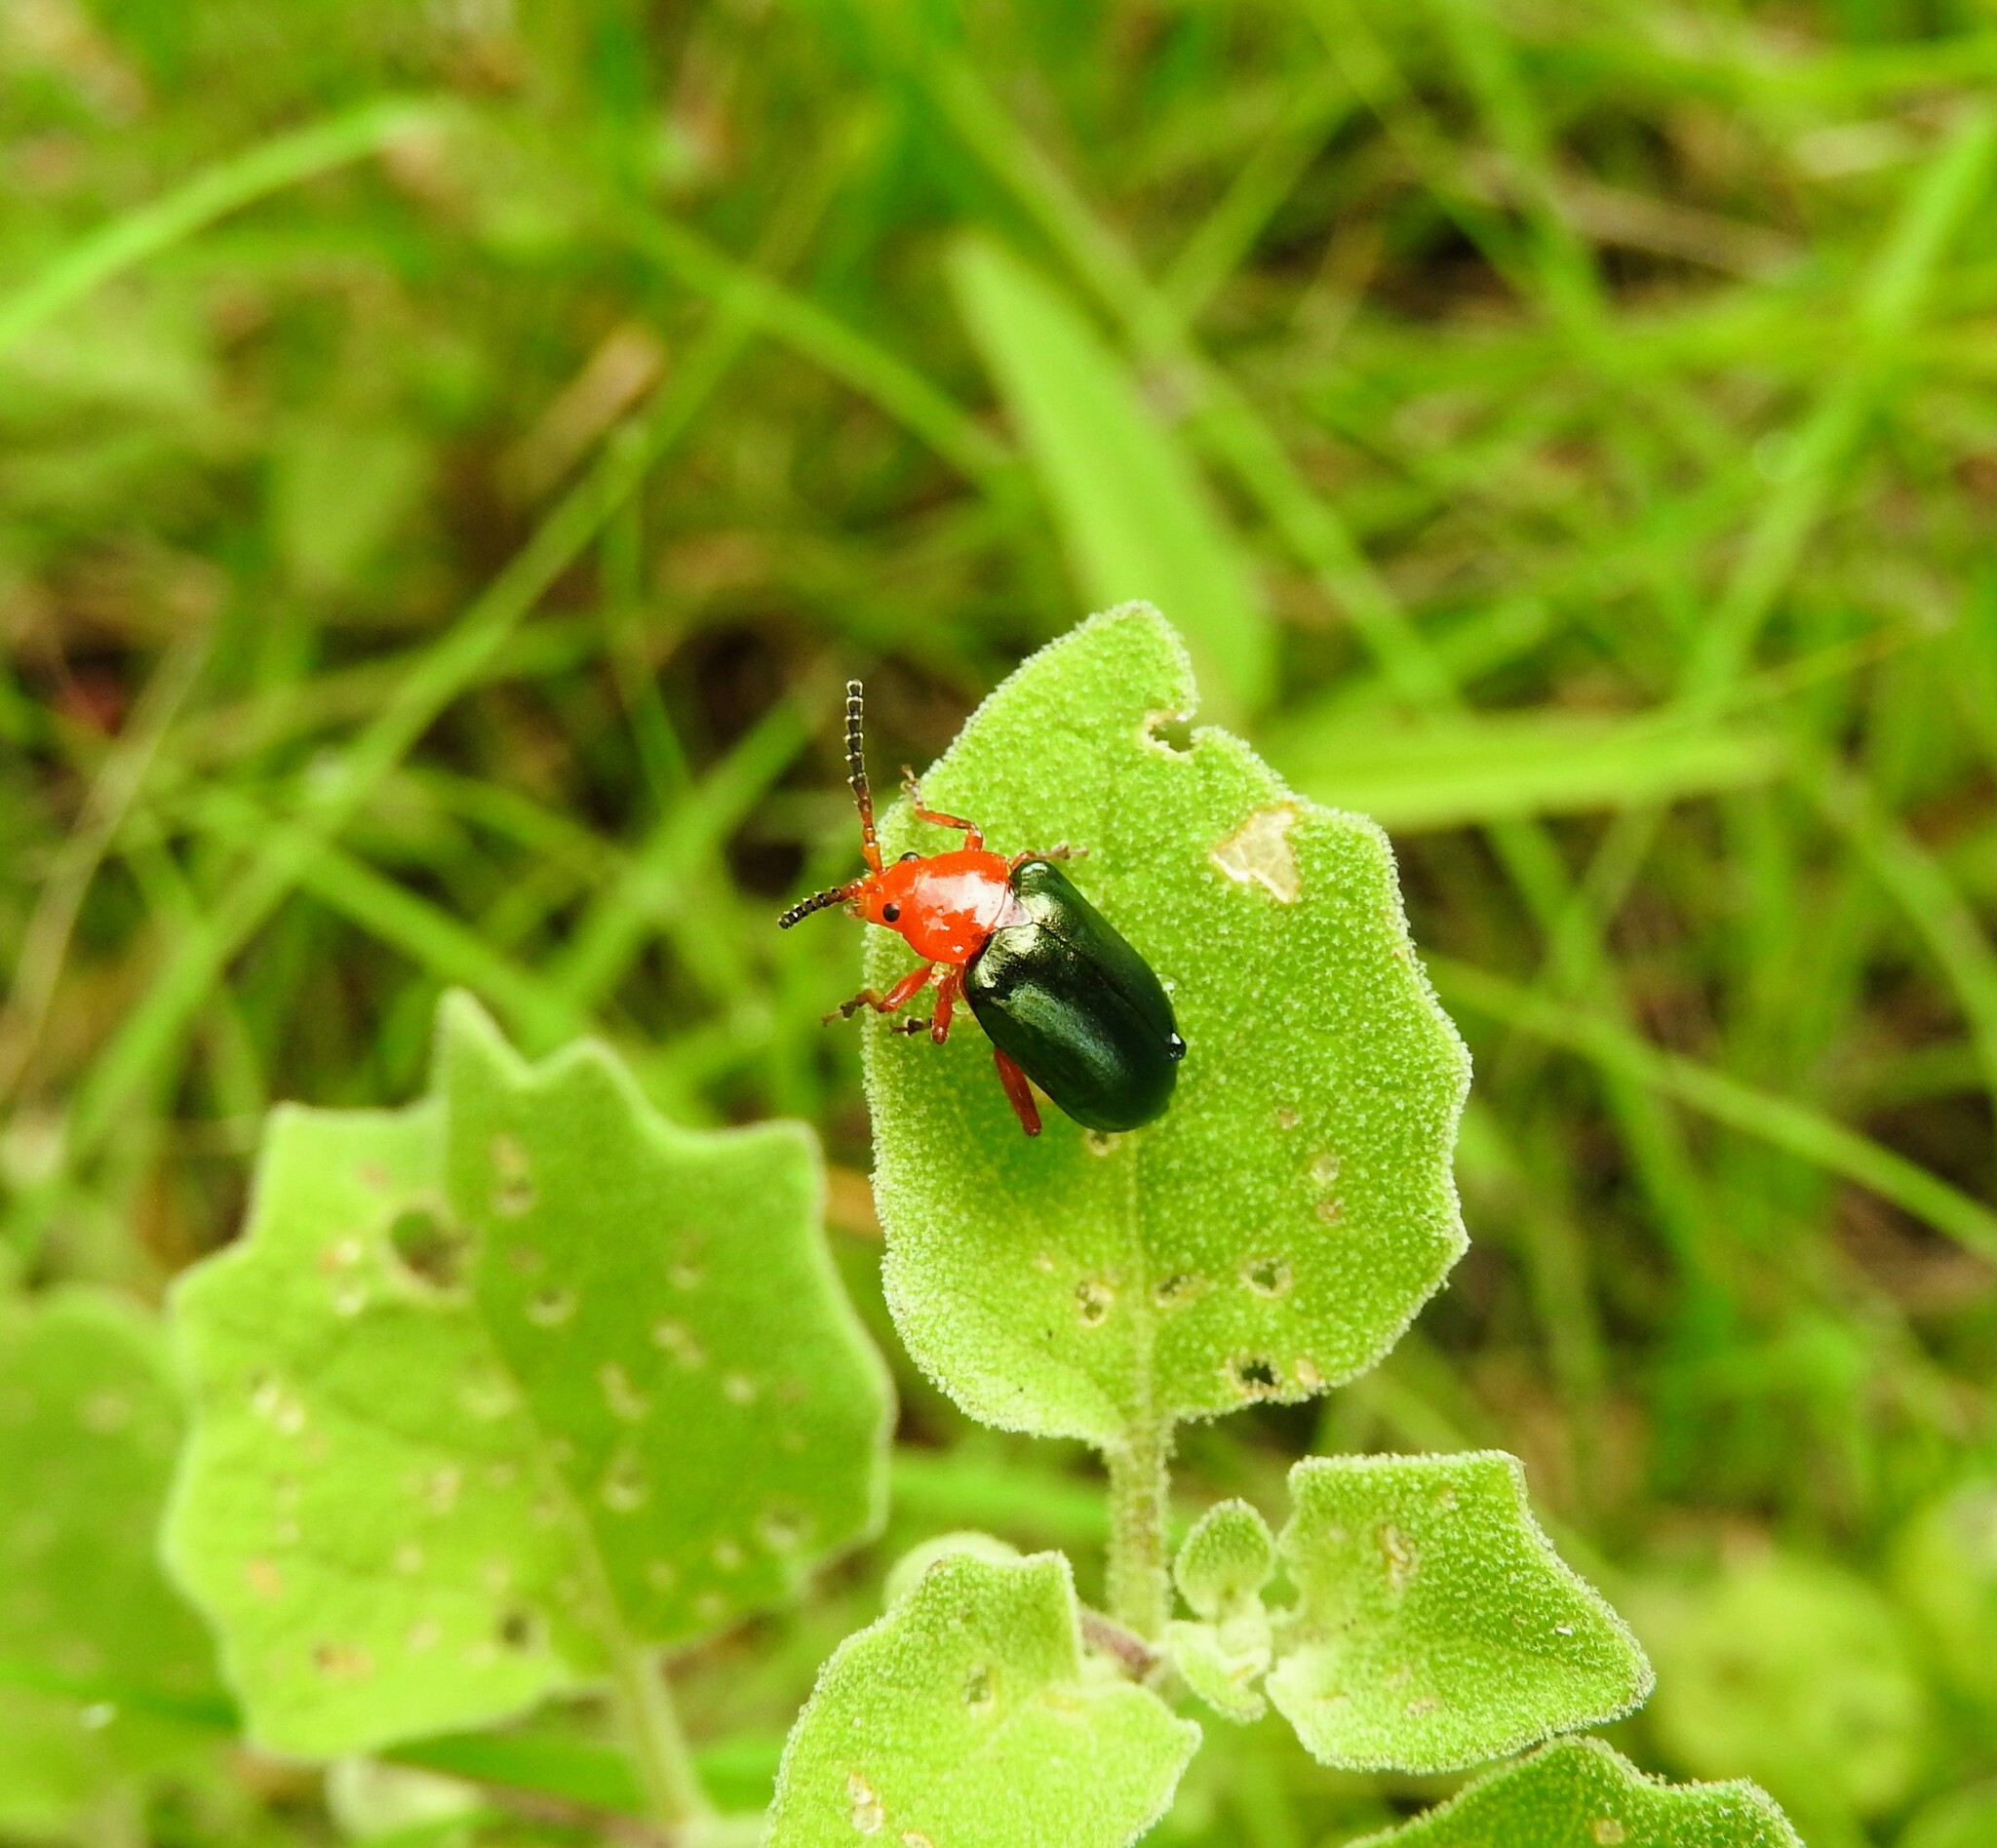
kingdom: Animalia
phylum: Arthropoda
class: Insecta
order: Coleoptera
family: Chrysomelidae
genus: Phrynocepha
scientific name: Phrynocepha
